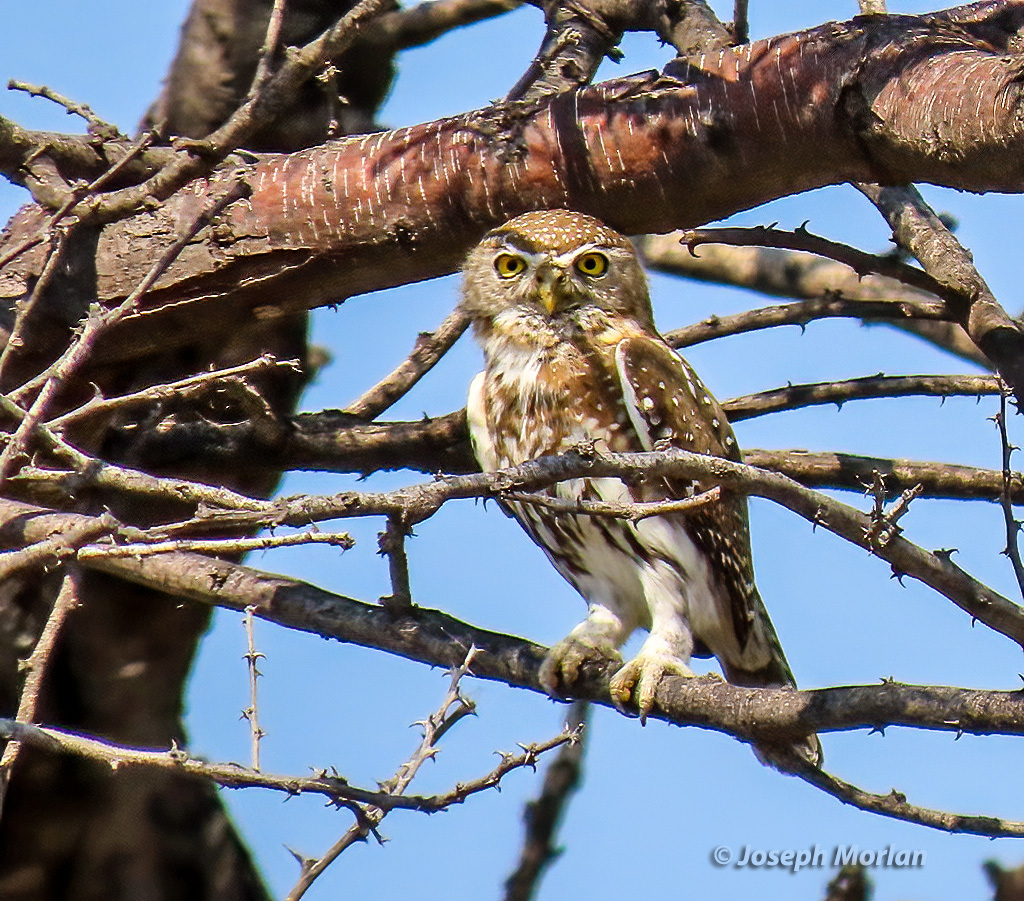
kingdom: Animalia
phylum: Chordata
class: Aves
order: Strigiformes
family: Strigidae
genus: Glaucidium
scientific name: Glaucidium perlatum
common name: Pearl-spotted owlet
